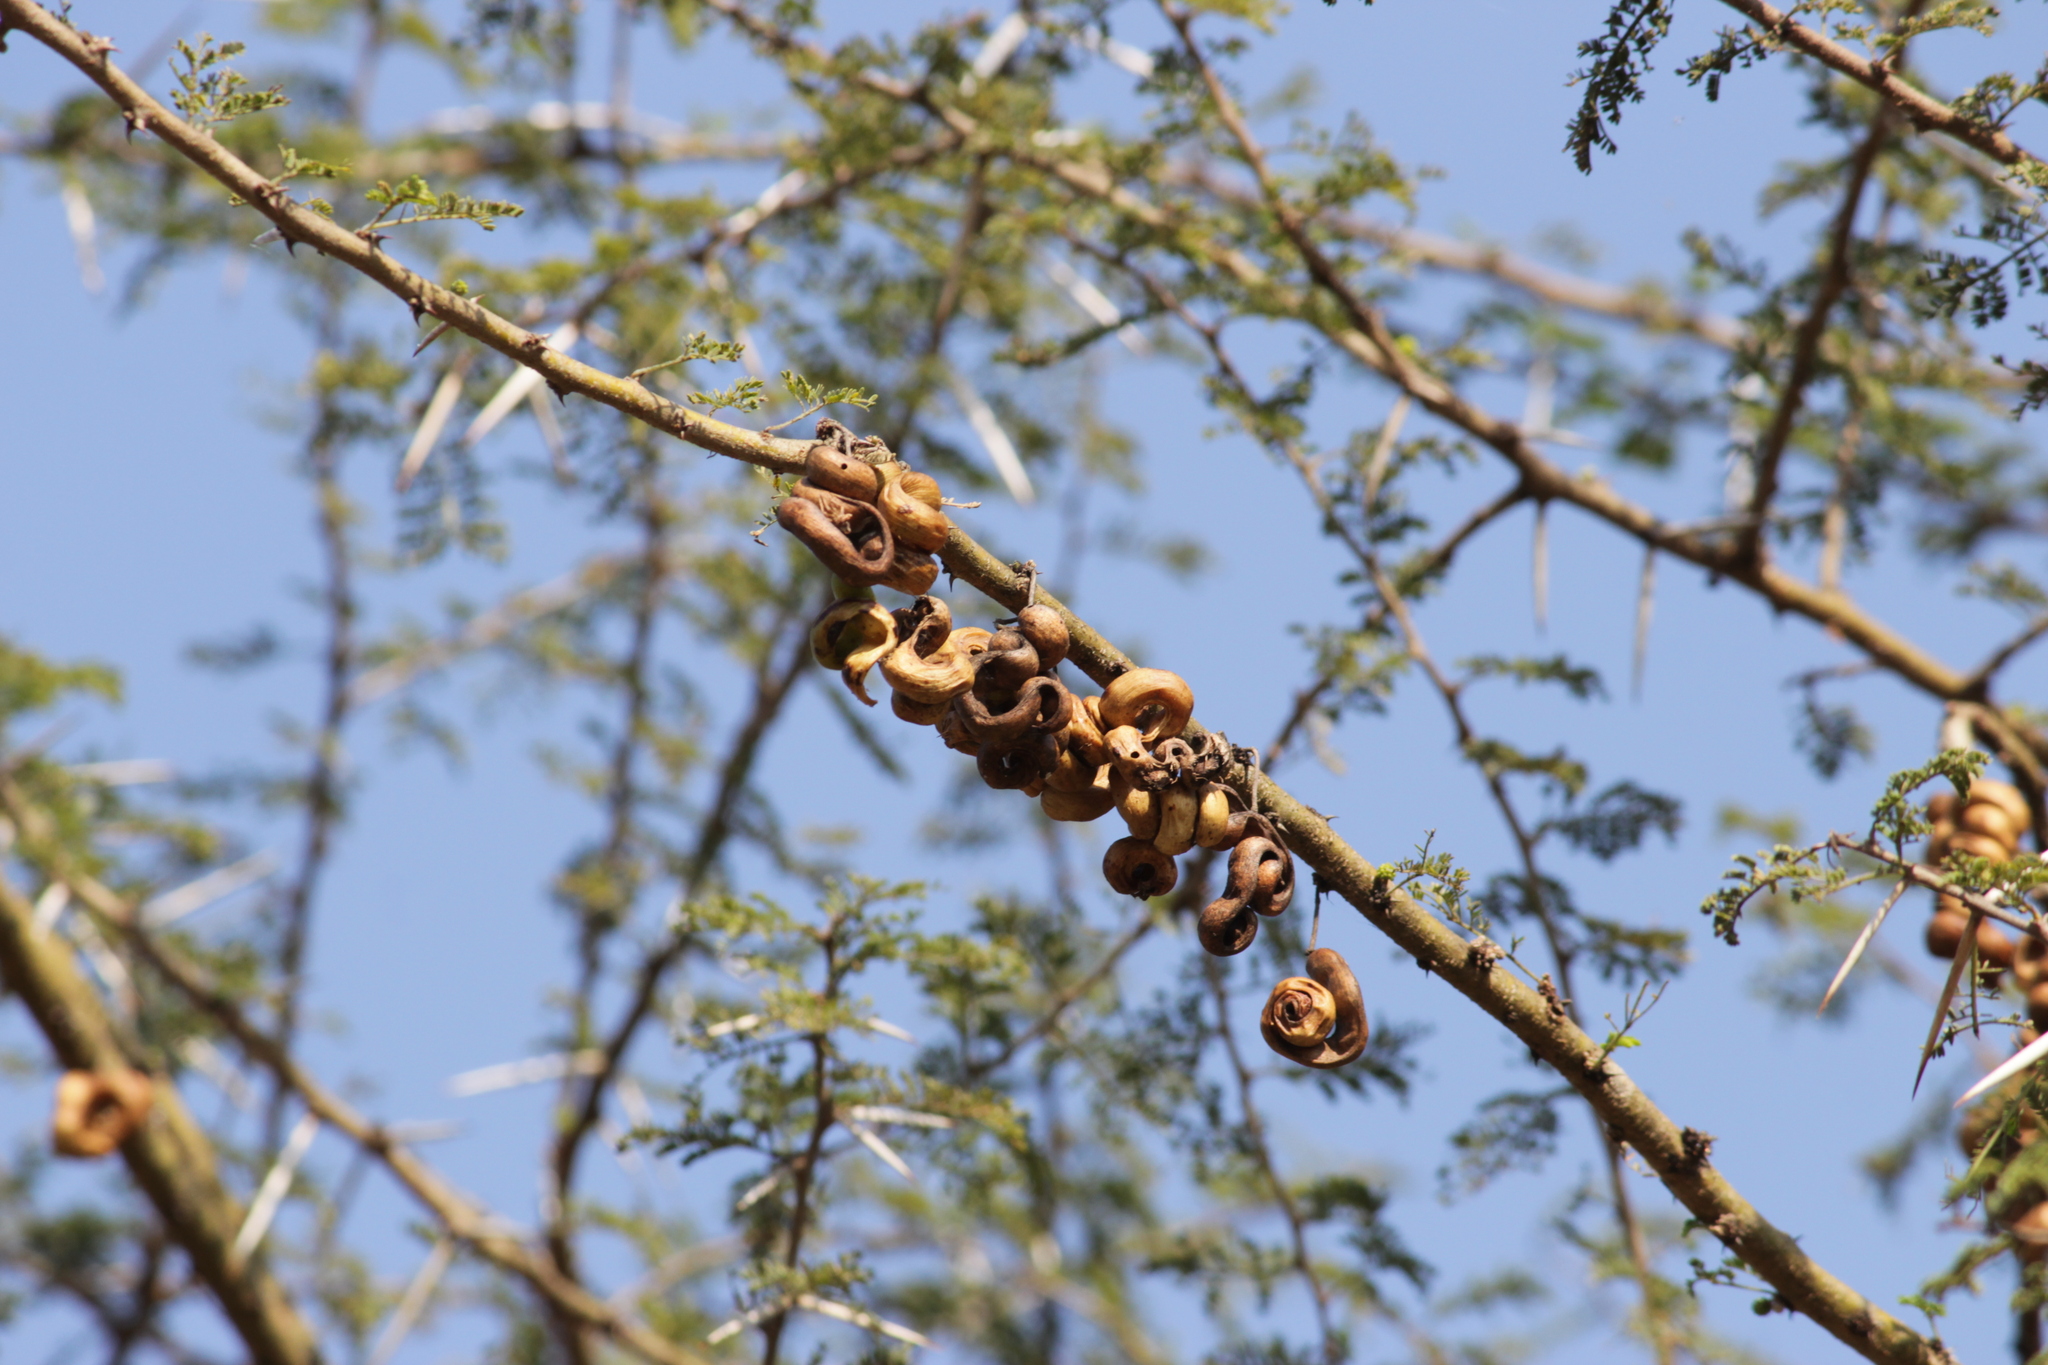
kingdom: Plantae
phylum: Tracheophyta
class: Magnoliopsida
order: Fabales
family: Fabaceae
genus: Vachellia
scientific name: Vachellia tortilis
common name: Umbrella thorn acacia
